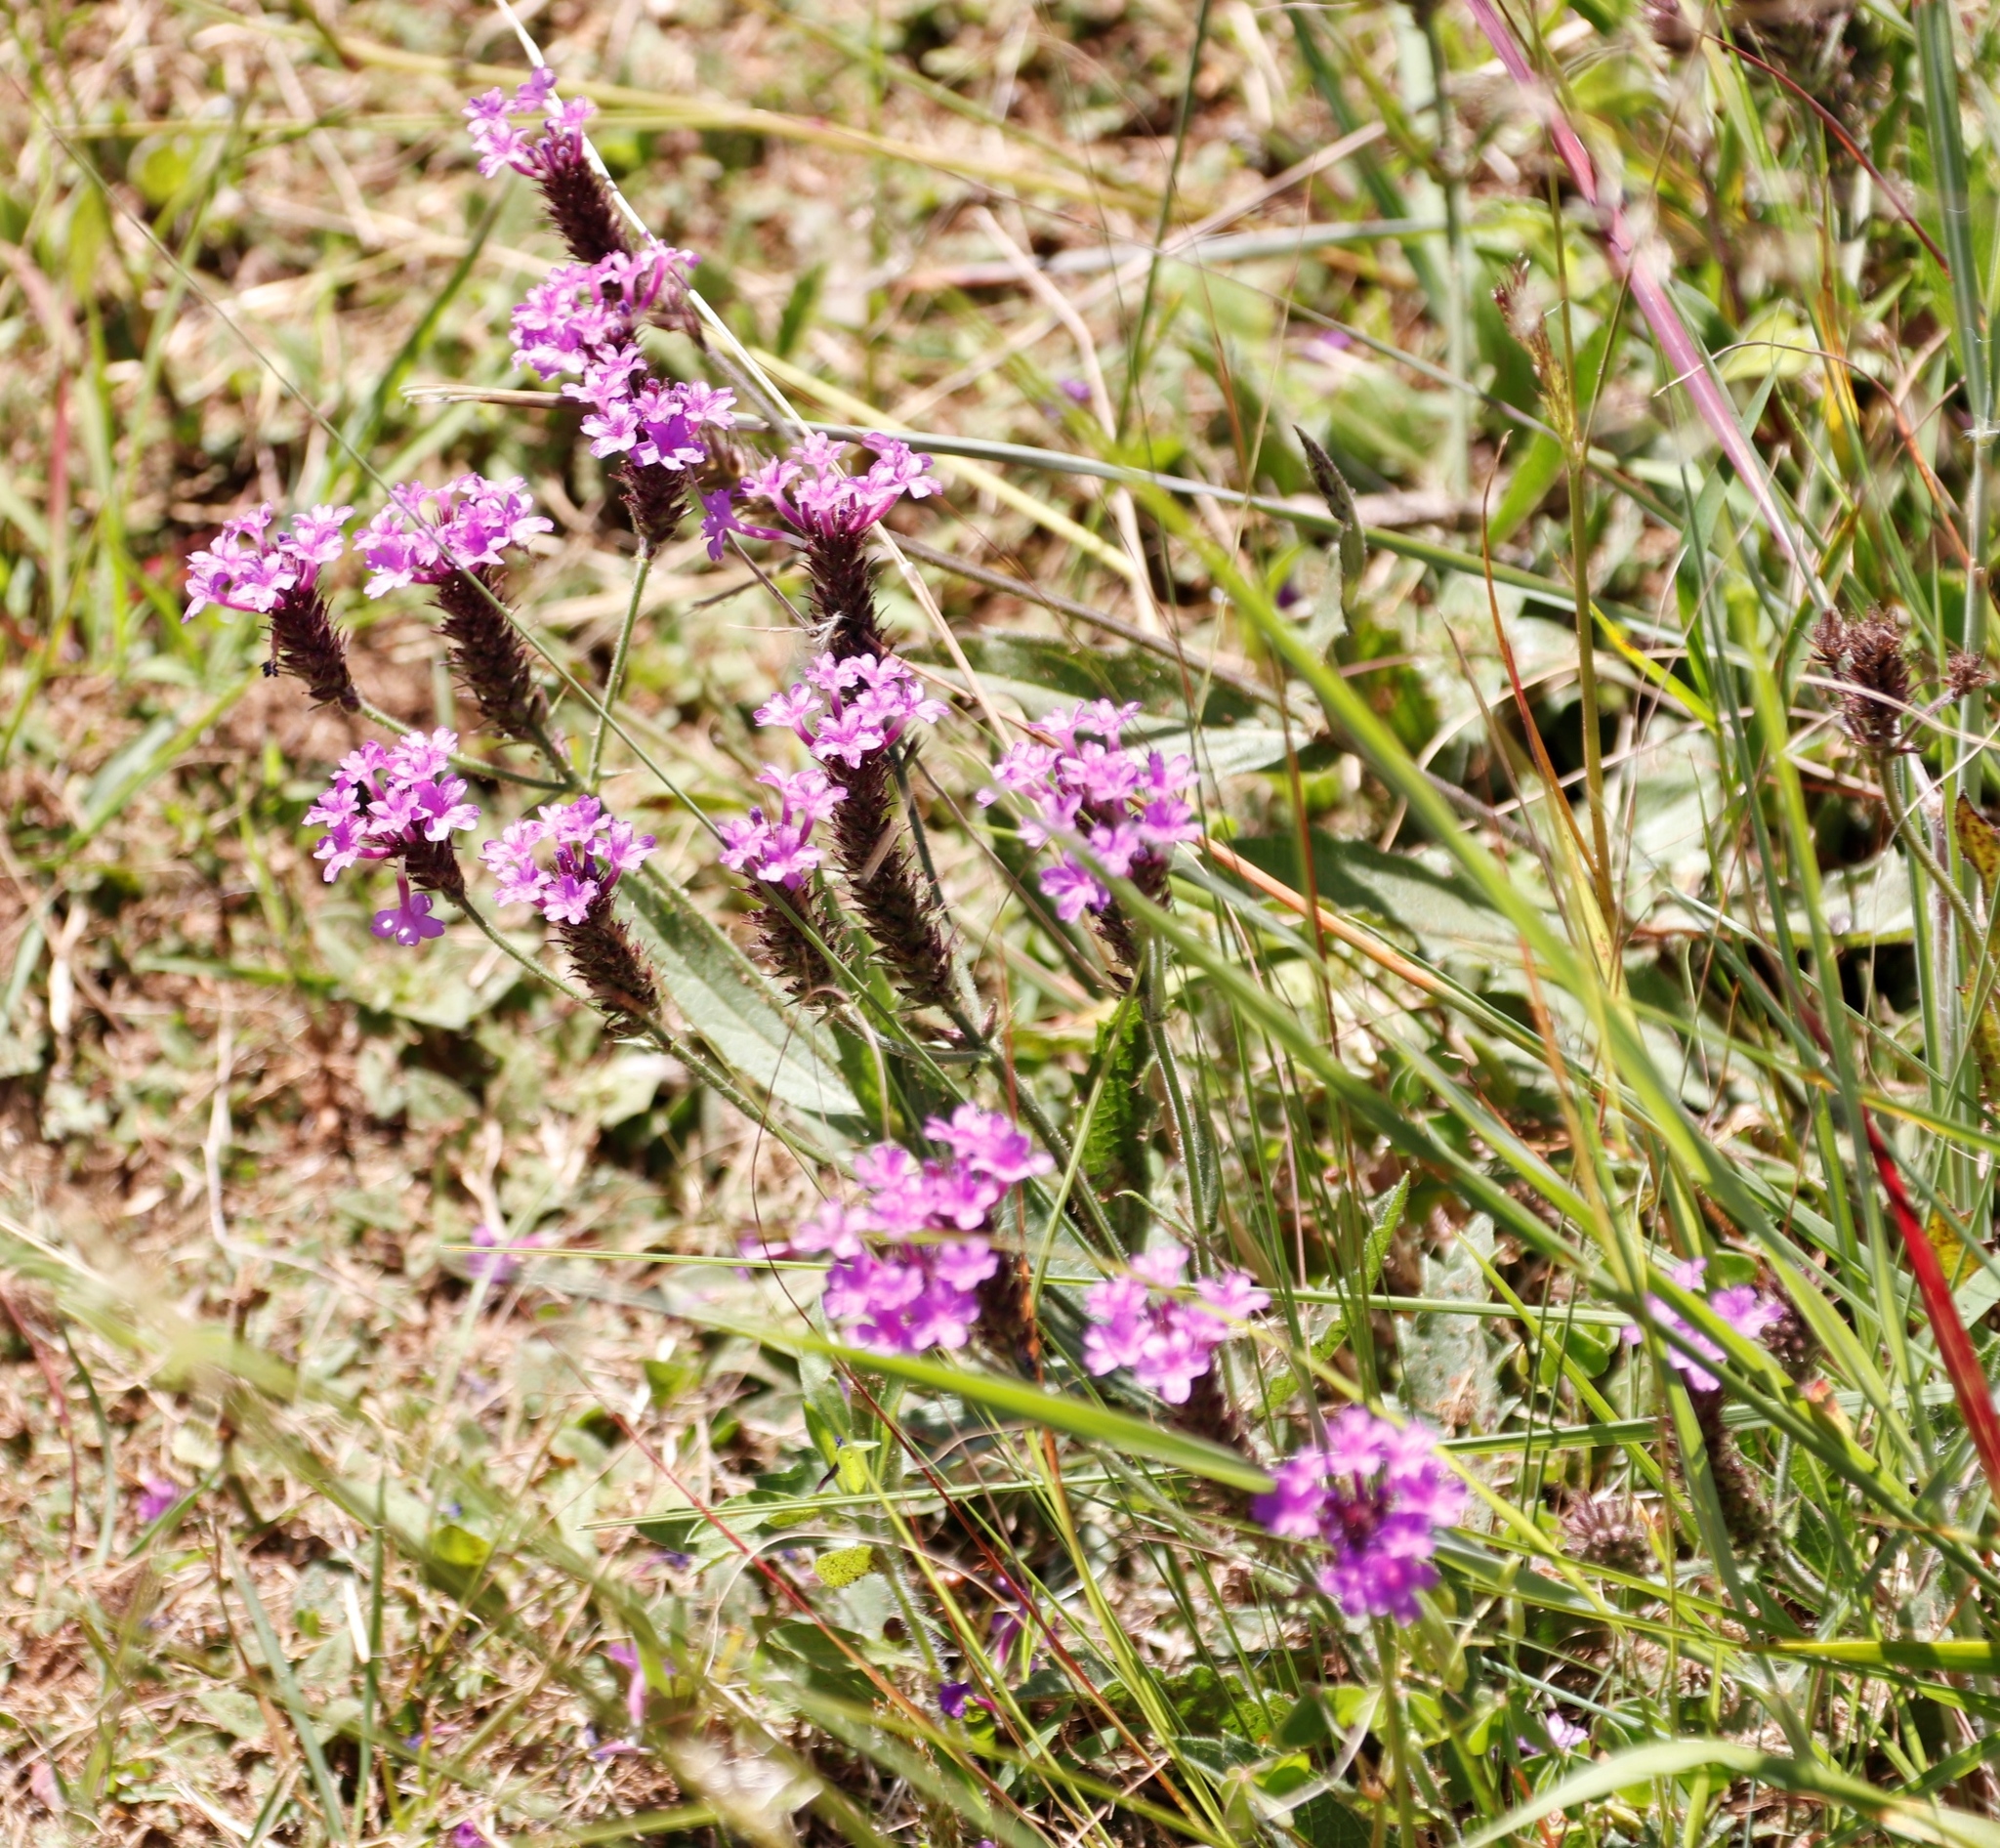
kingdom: Plantae
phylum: Tracheophyta
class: Magnoliopsida
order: Lamiales
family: Verbenaceae
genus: Verbena
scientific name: Verbena rigida
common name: Slender vervain
